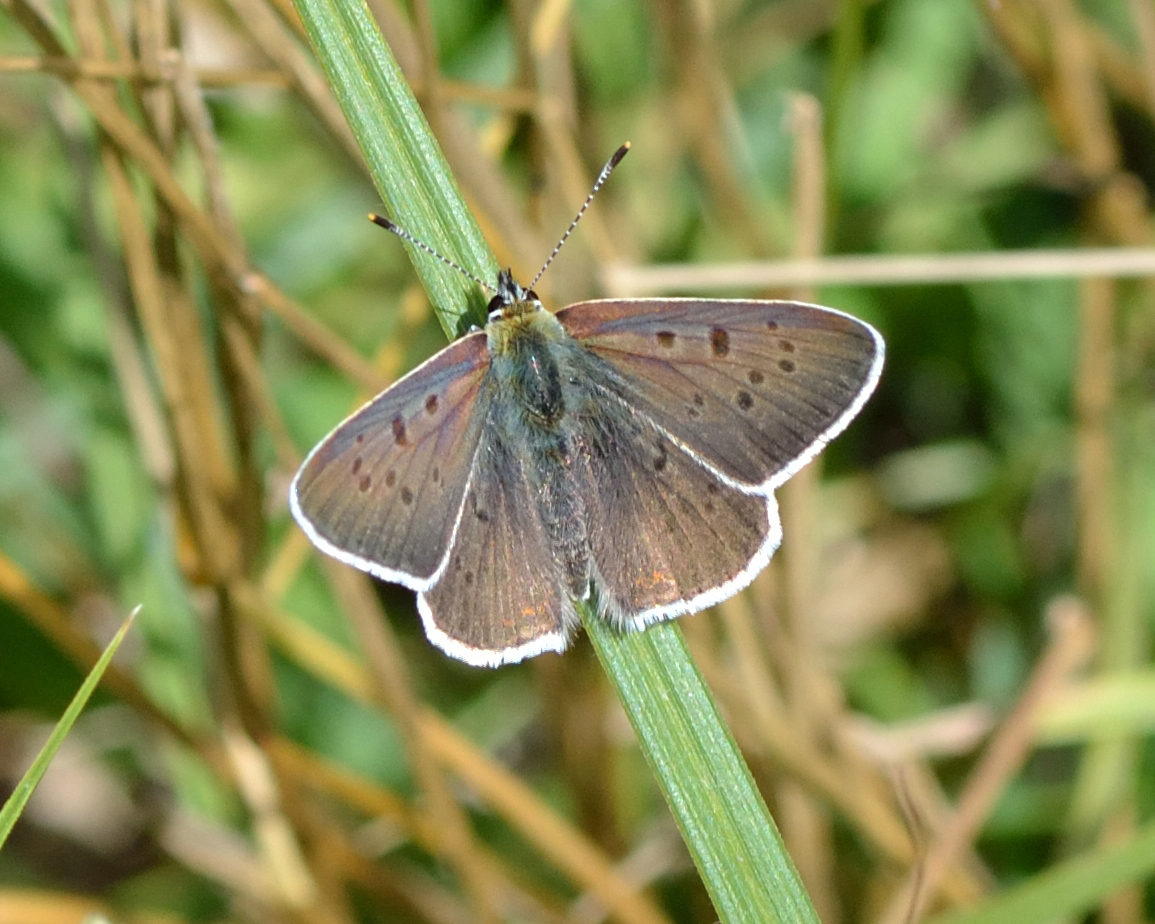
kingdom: Animalia
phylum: Arthropoda
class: Insecta
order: Lepidoptera
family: Lycaenidae
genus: Loweia
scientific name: Loweia tityrus
